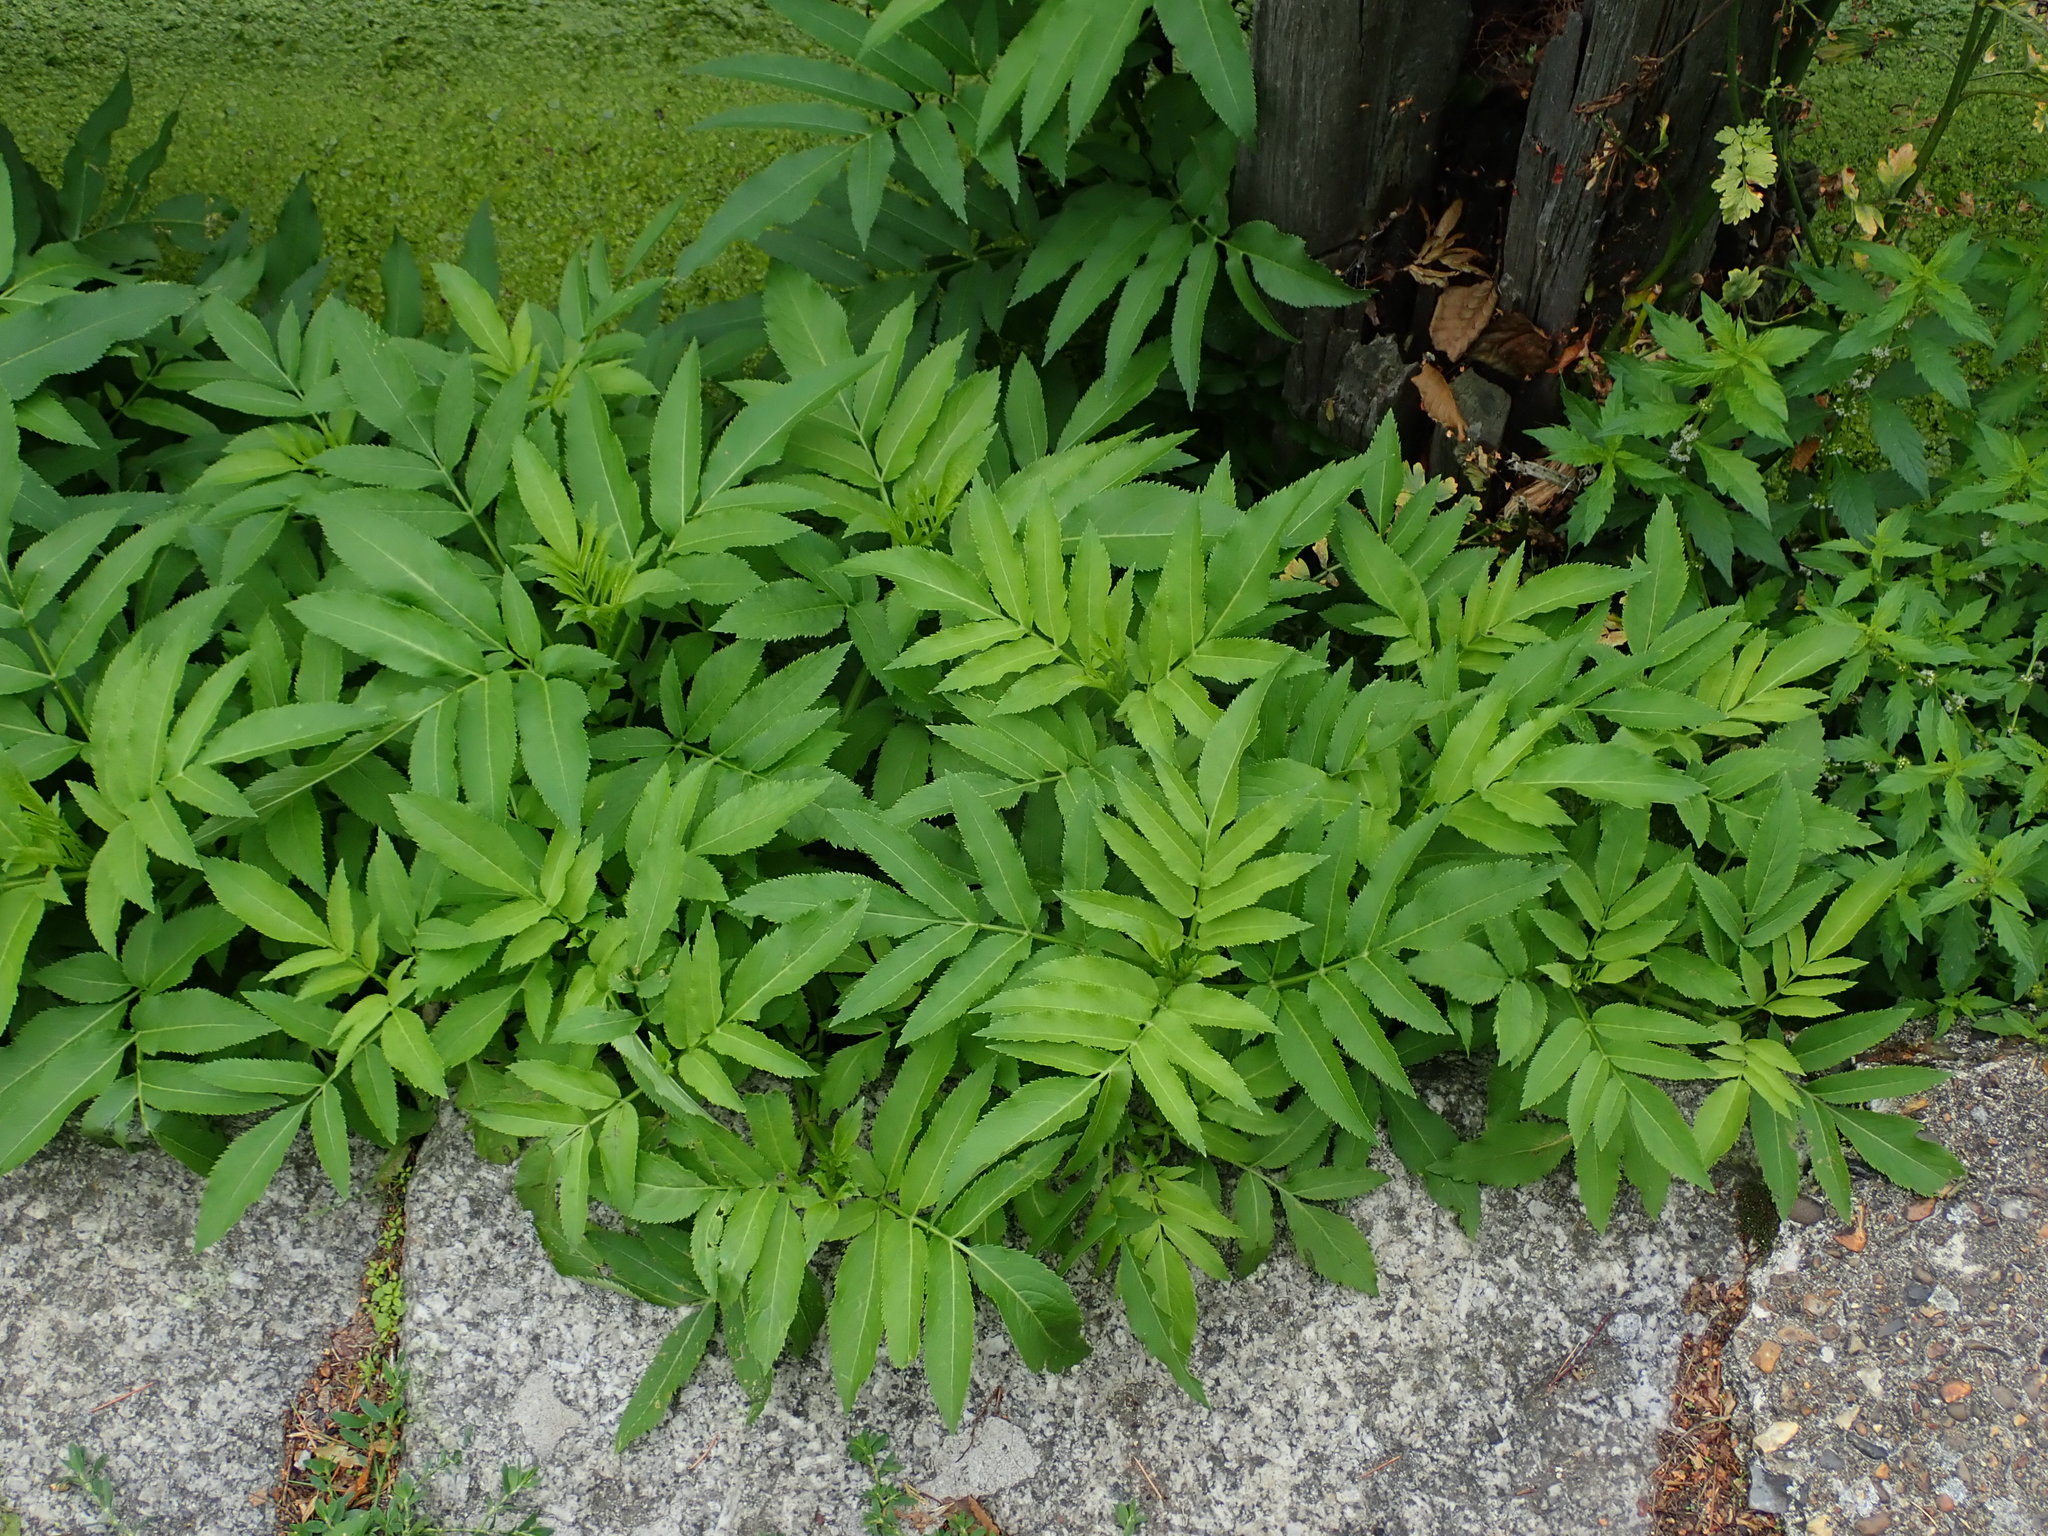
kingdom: Plantae
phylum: Tracheophyta
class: Magnoliopsida
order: Dipsacales
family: Viburnaceae
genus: Sambucus
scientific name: Sambucus ebulus
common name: Dwarf elder
